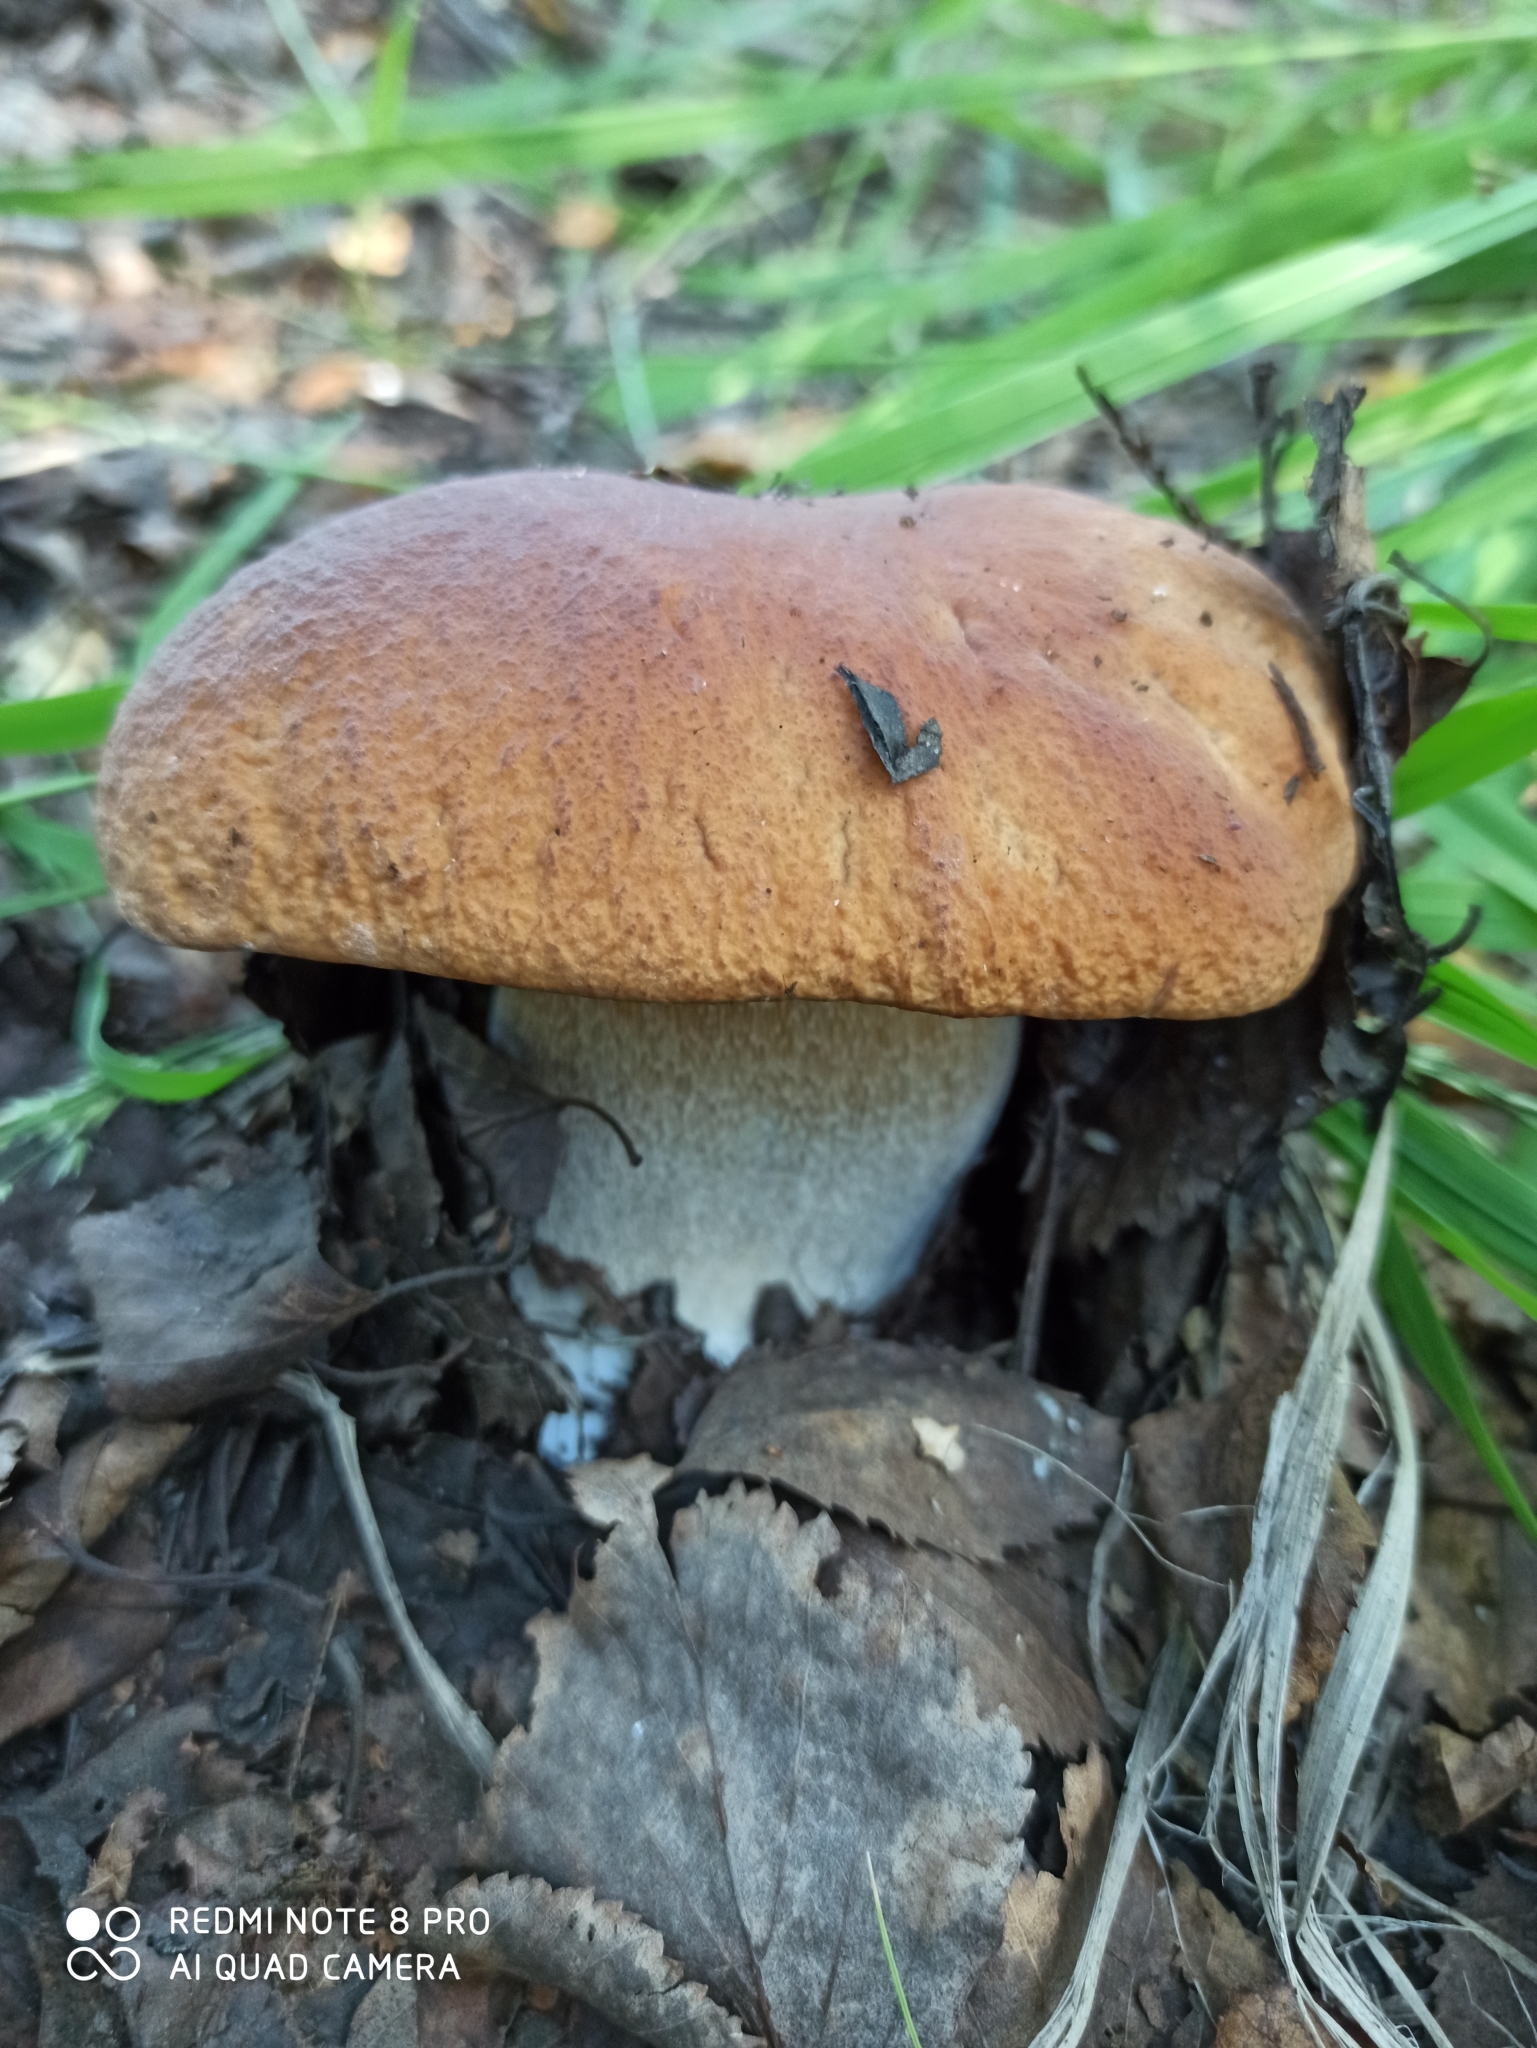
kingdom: Fungi
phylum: Basidiomycota
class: Agaricomycetes
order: Boletales
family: Boletaceae
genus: Boletus
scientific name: Boletus edulis
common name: Cep
